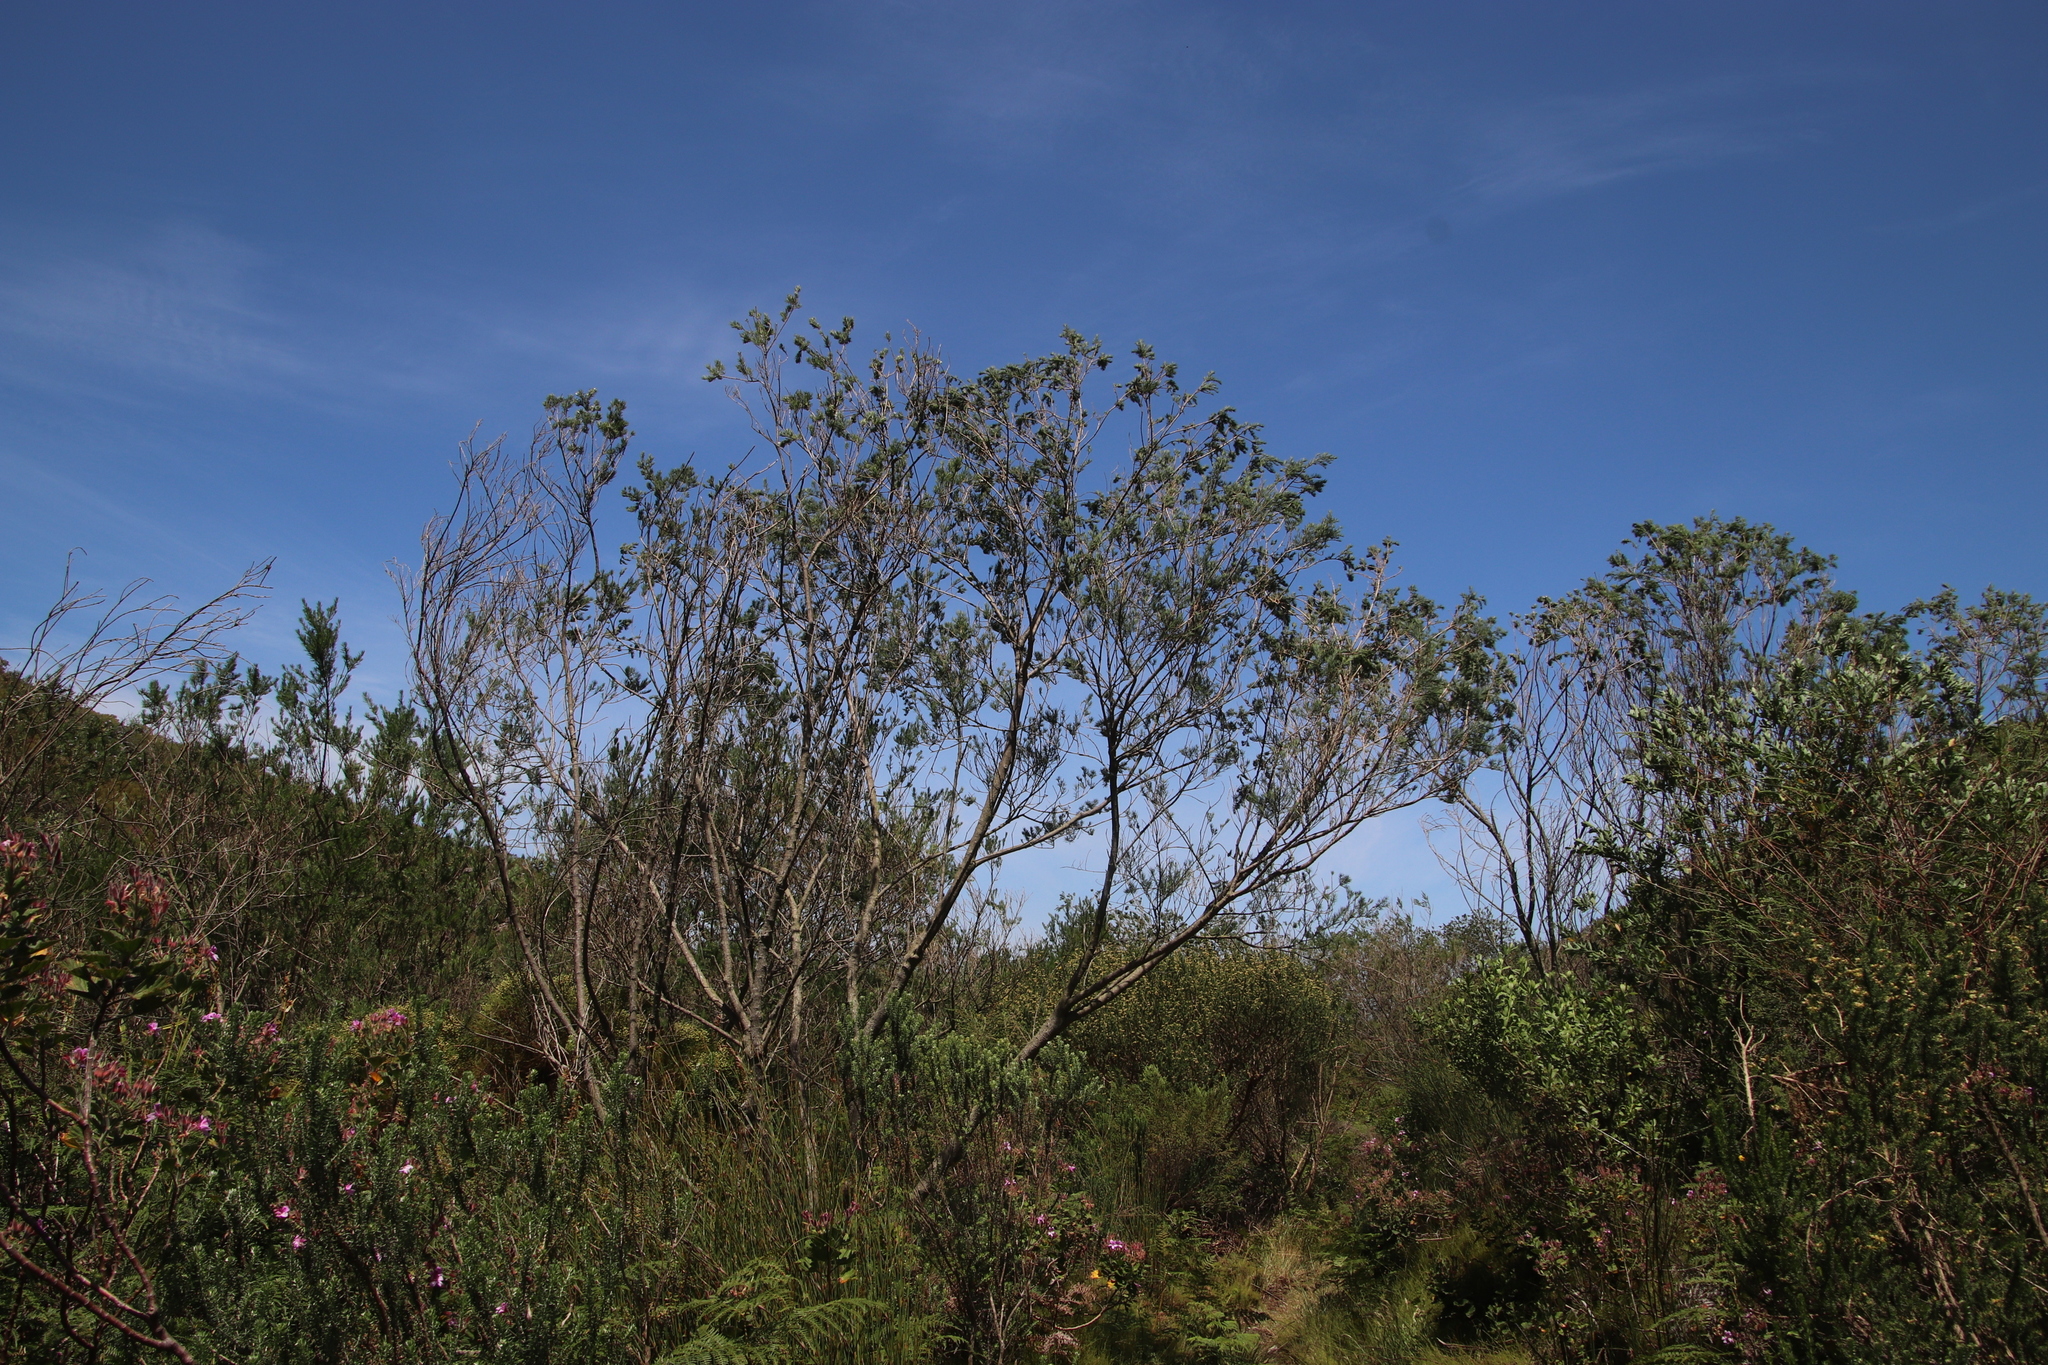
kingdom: Plantae
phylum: Tracheophyta
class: Magnoliopsida
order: Fabales
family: Fabaceae
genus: Psoralea
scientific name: Psoralea pinnata
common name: African scurfpea
